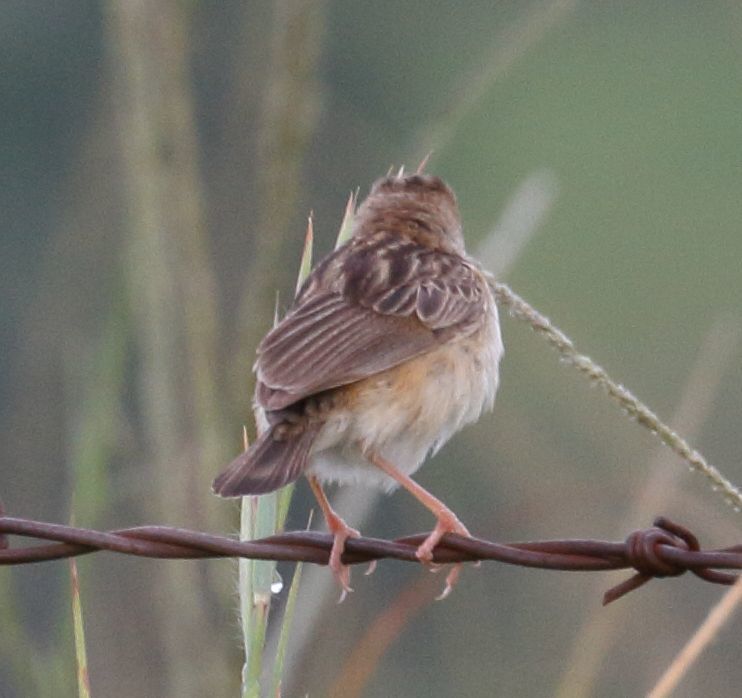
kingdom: Animalia
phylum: Chordata
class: Aves
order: Passeriformes
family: Cisticolidae
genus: Cisticola
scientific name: Cisticola juncidis
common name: Zitting cisticola
